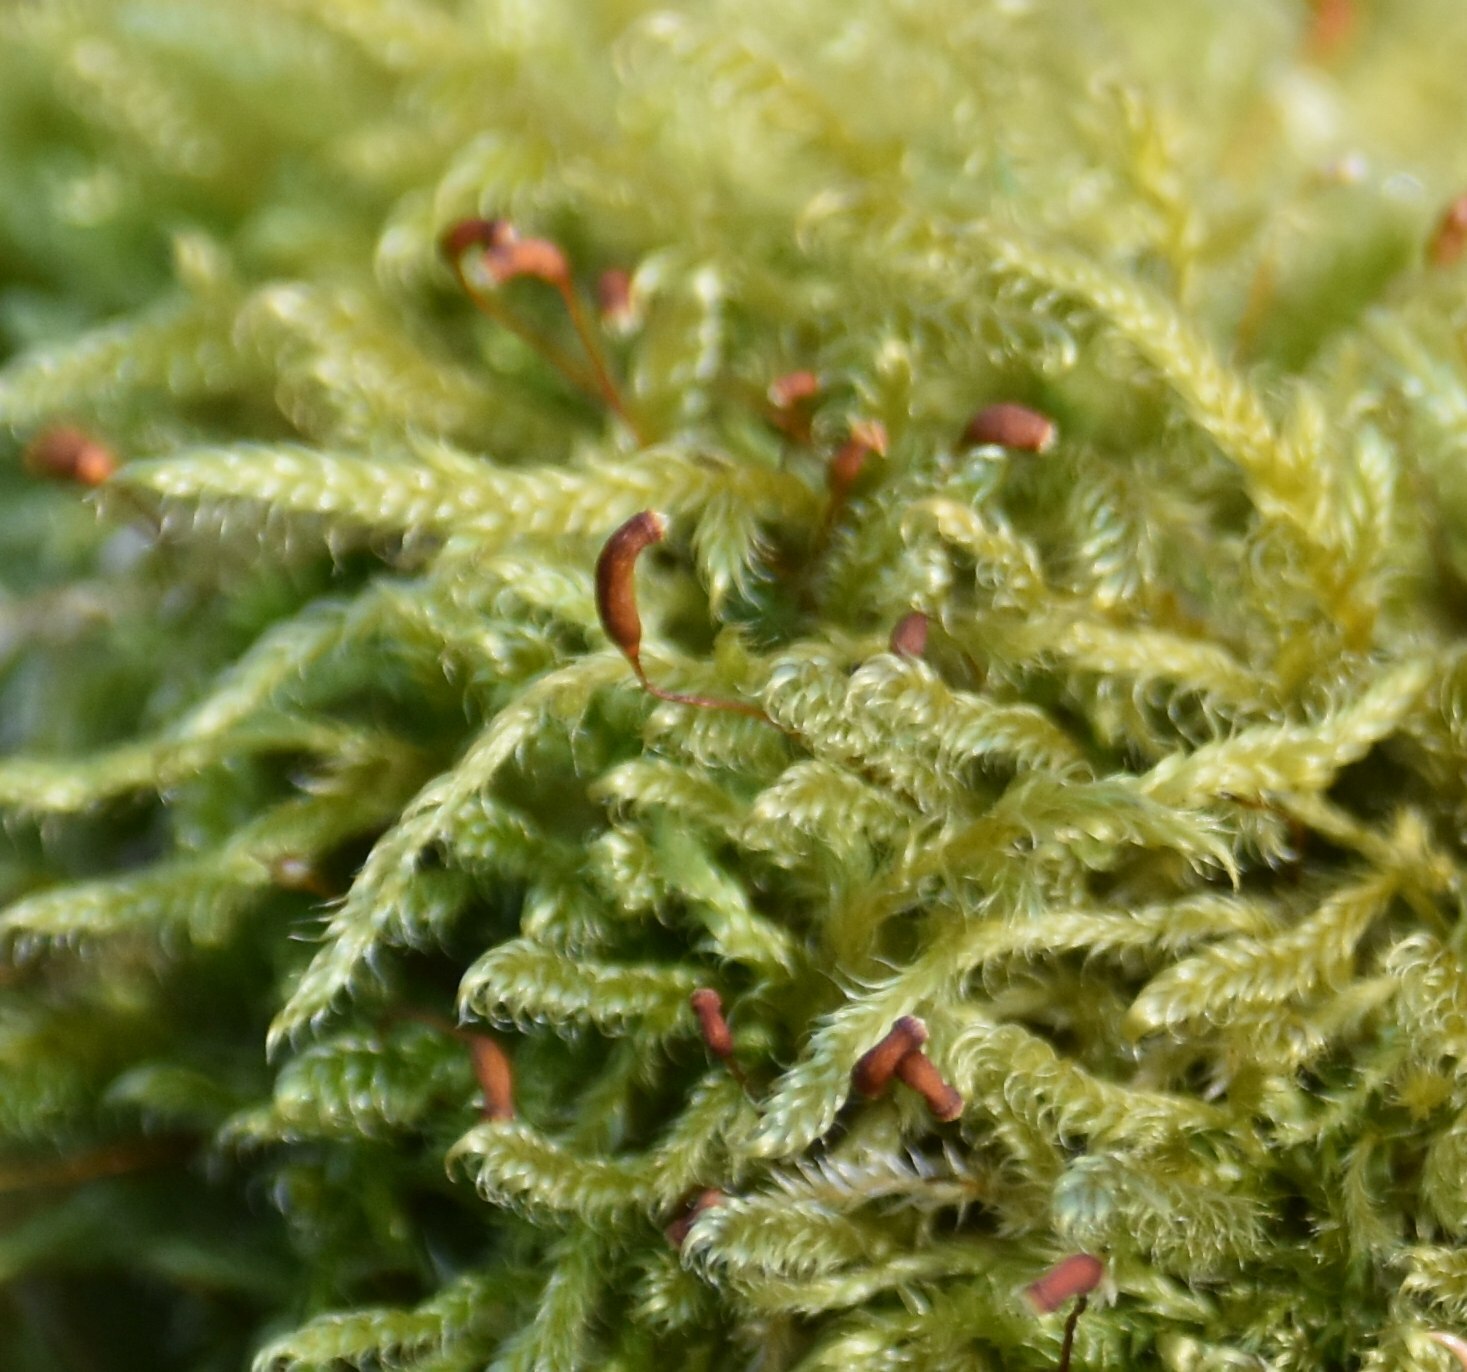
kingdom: Plantae
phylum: Bryophyta
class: Bryopsida
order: Hypnales
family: Hypnaceae
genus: Hypnum
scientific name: Hypnum cupressiforme
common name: Cypress-leaved plait-moss
